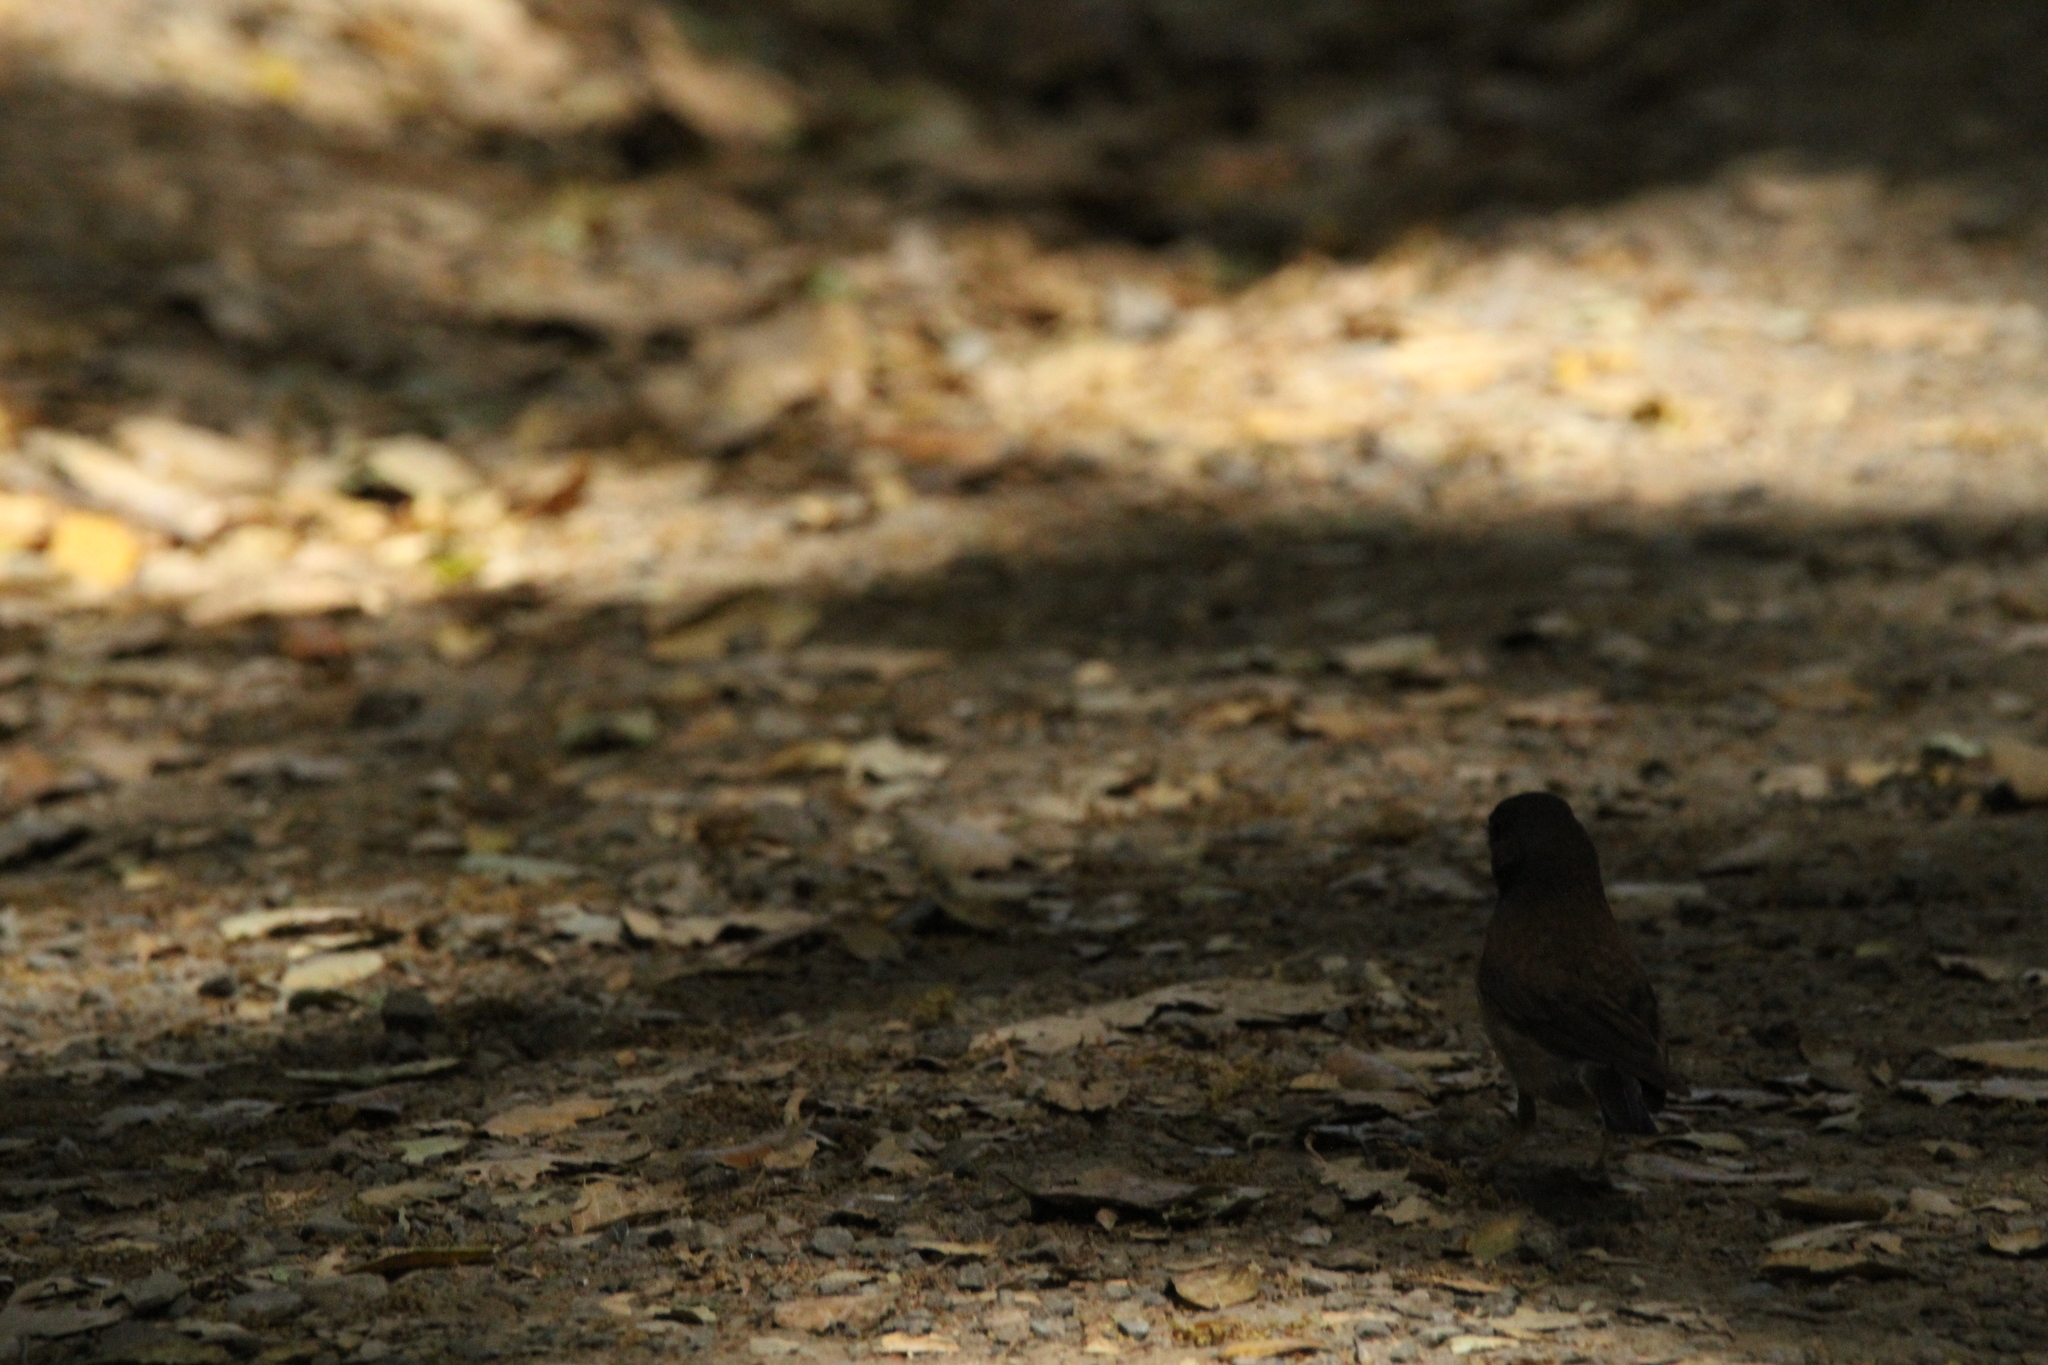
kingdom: Animalia
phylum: Chordata
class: Aves
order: Passeriformes
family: Passerellidae
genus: Junco
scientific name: Junco hyemalis
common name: Dark-eyed junco
